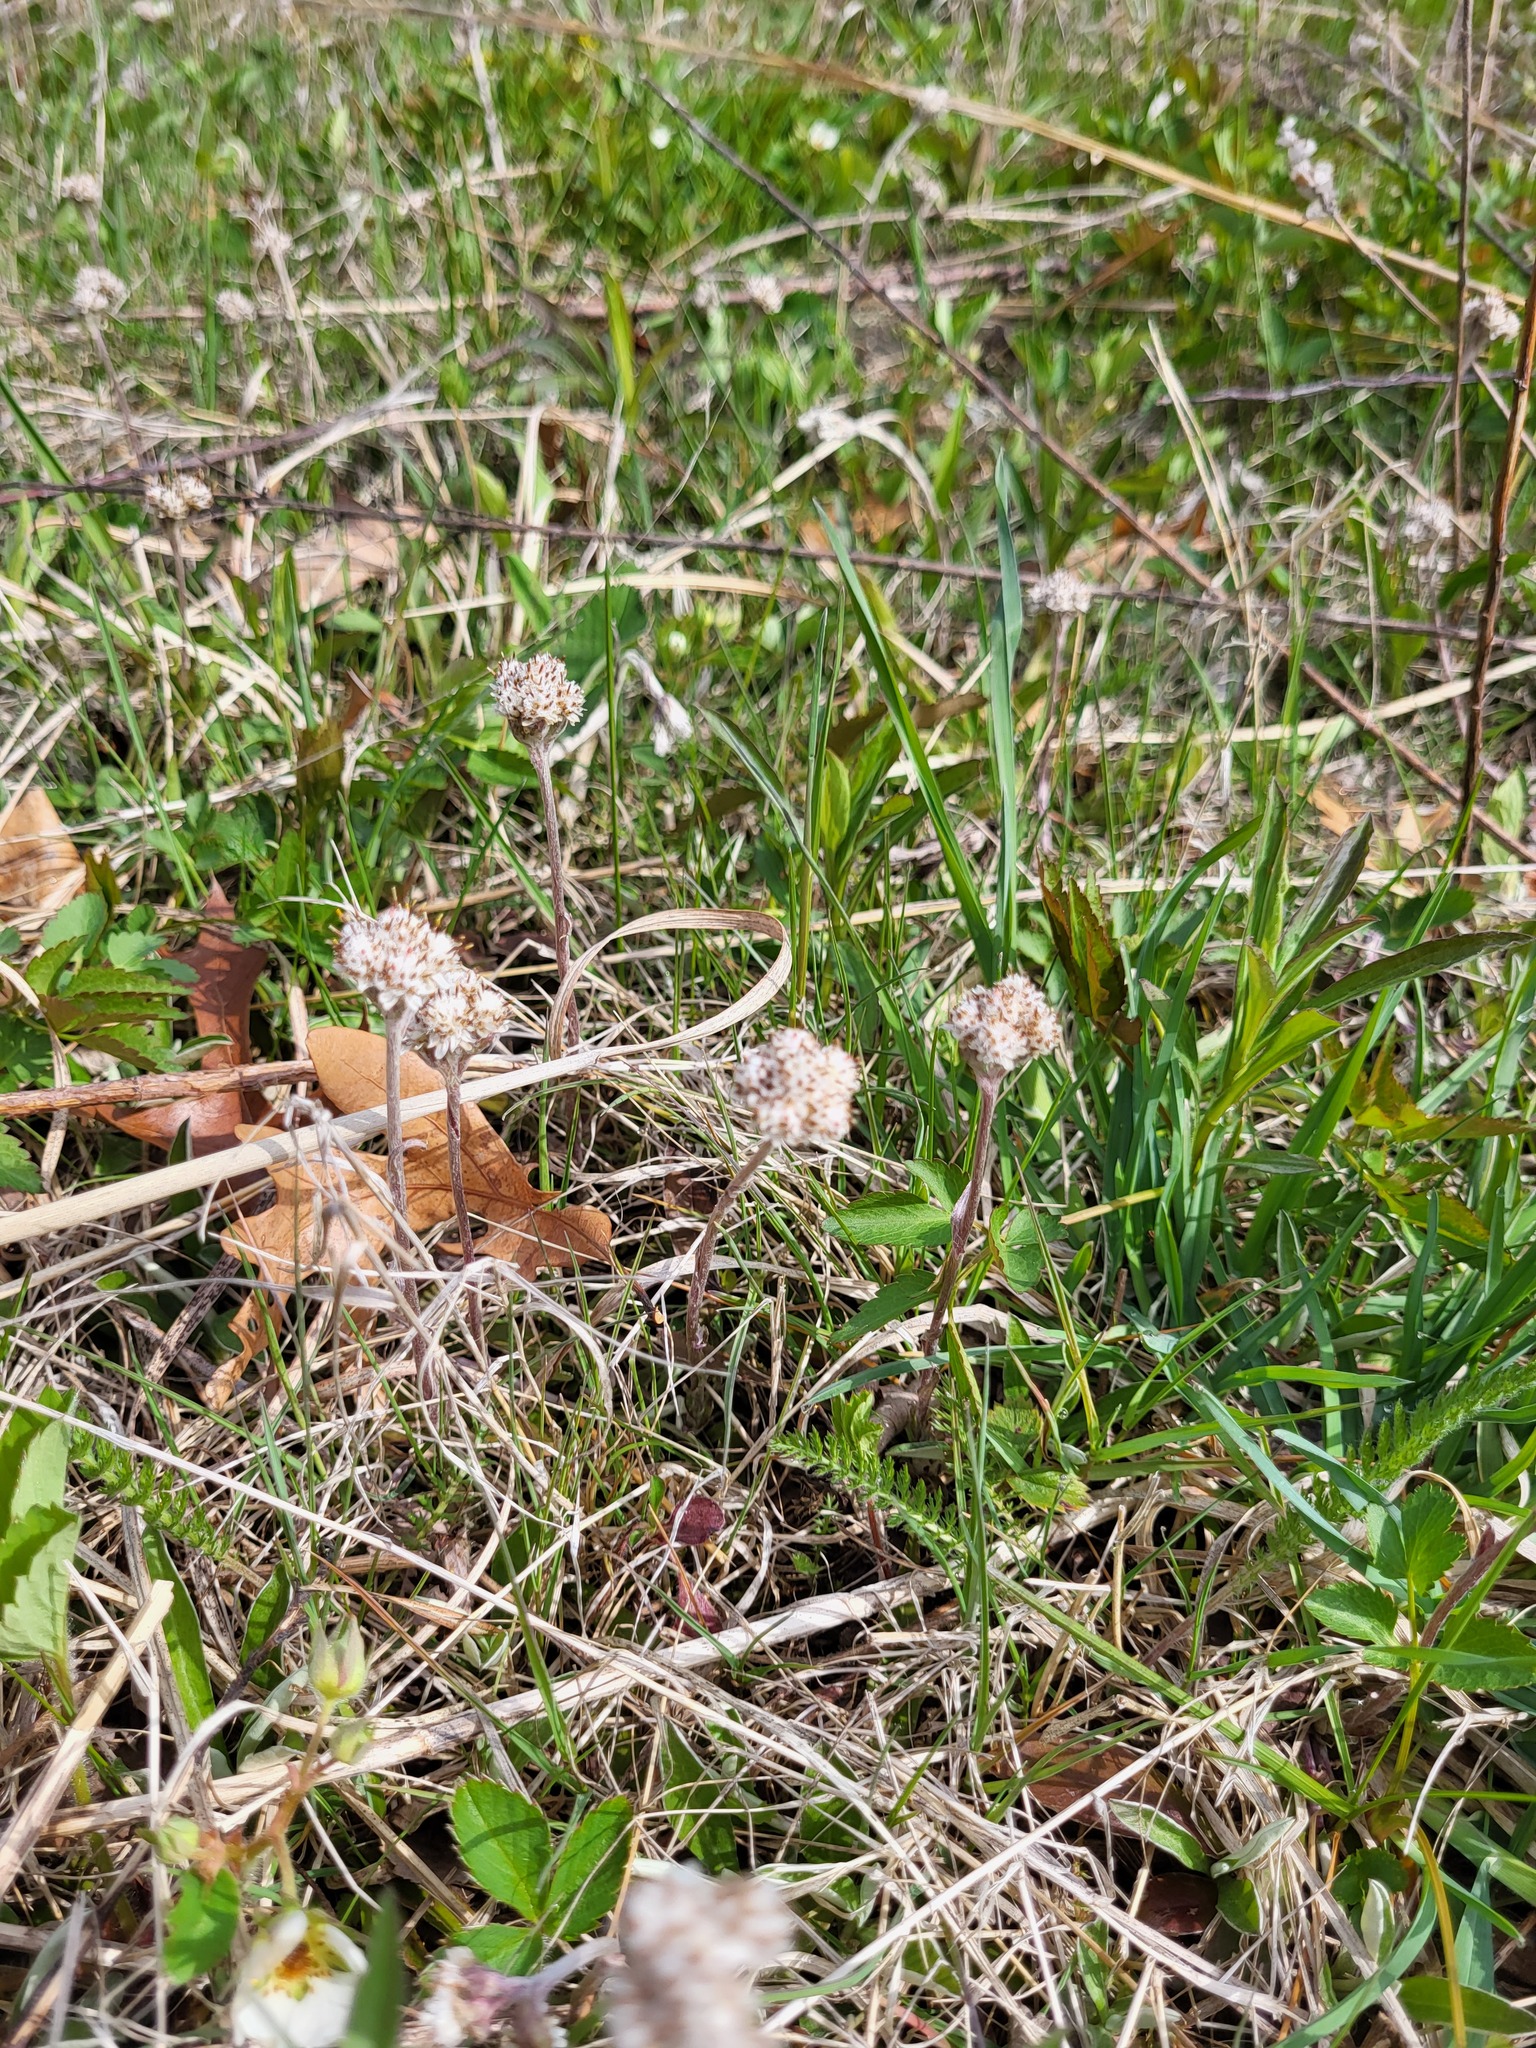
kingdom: Plantae
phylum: Tracheophyta
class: Magnoliopsida
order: Asterales
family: Asteraceae
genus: Antennaria
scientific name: Antennaria neglecta
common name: Field pussytoes
